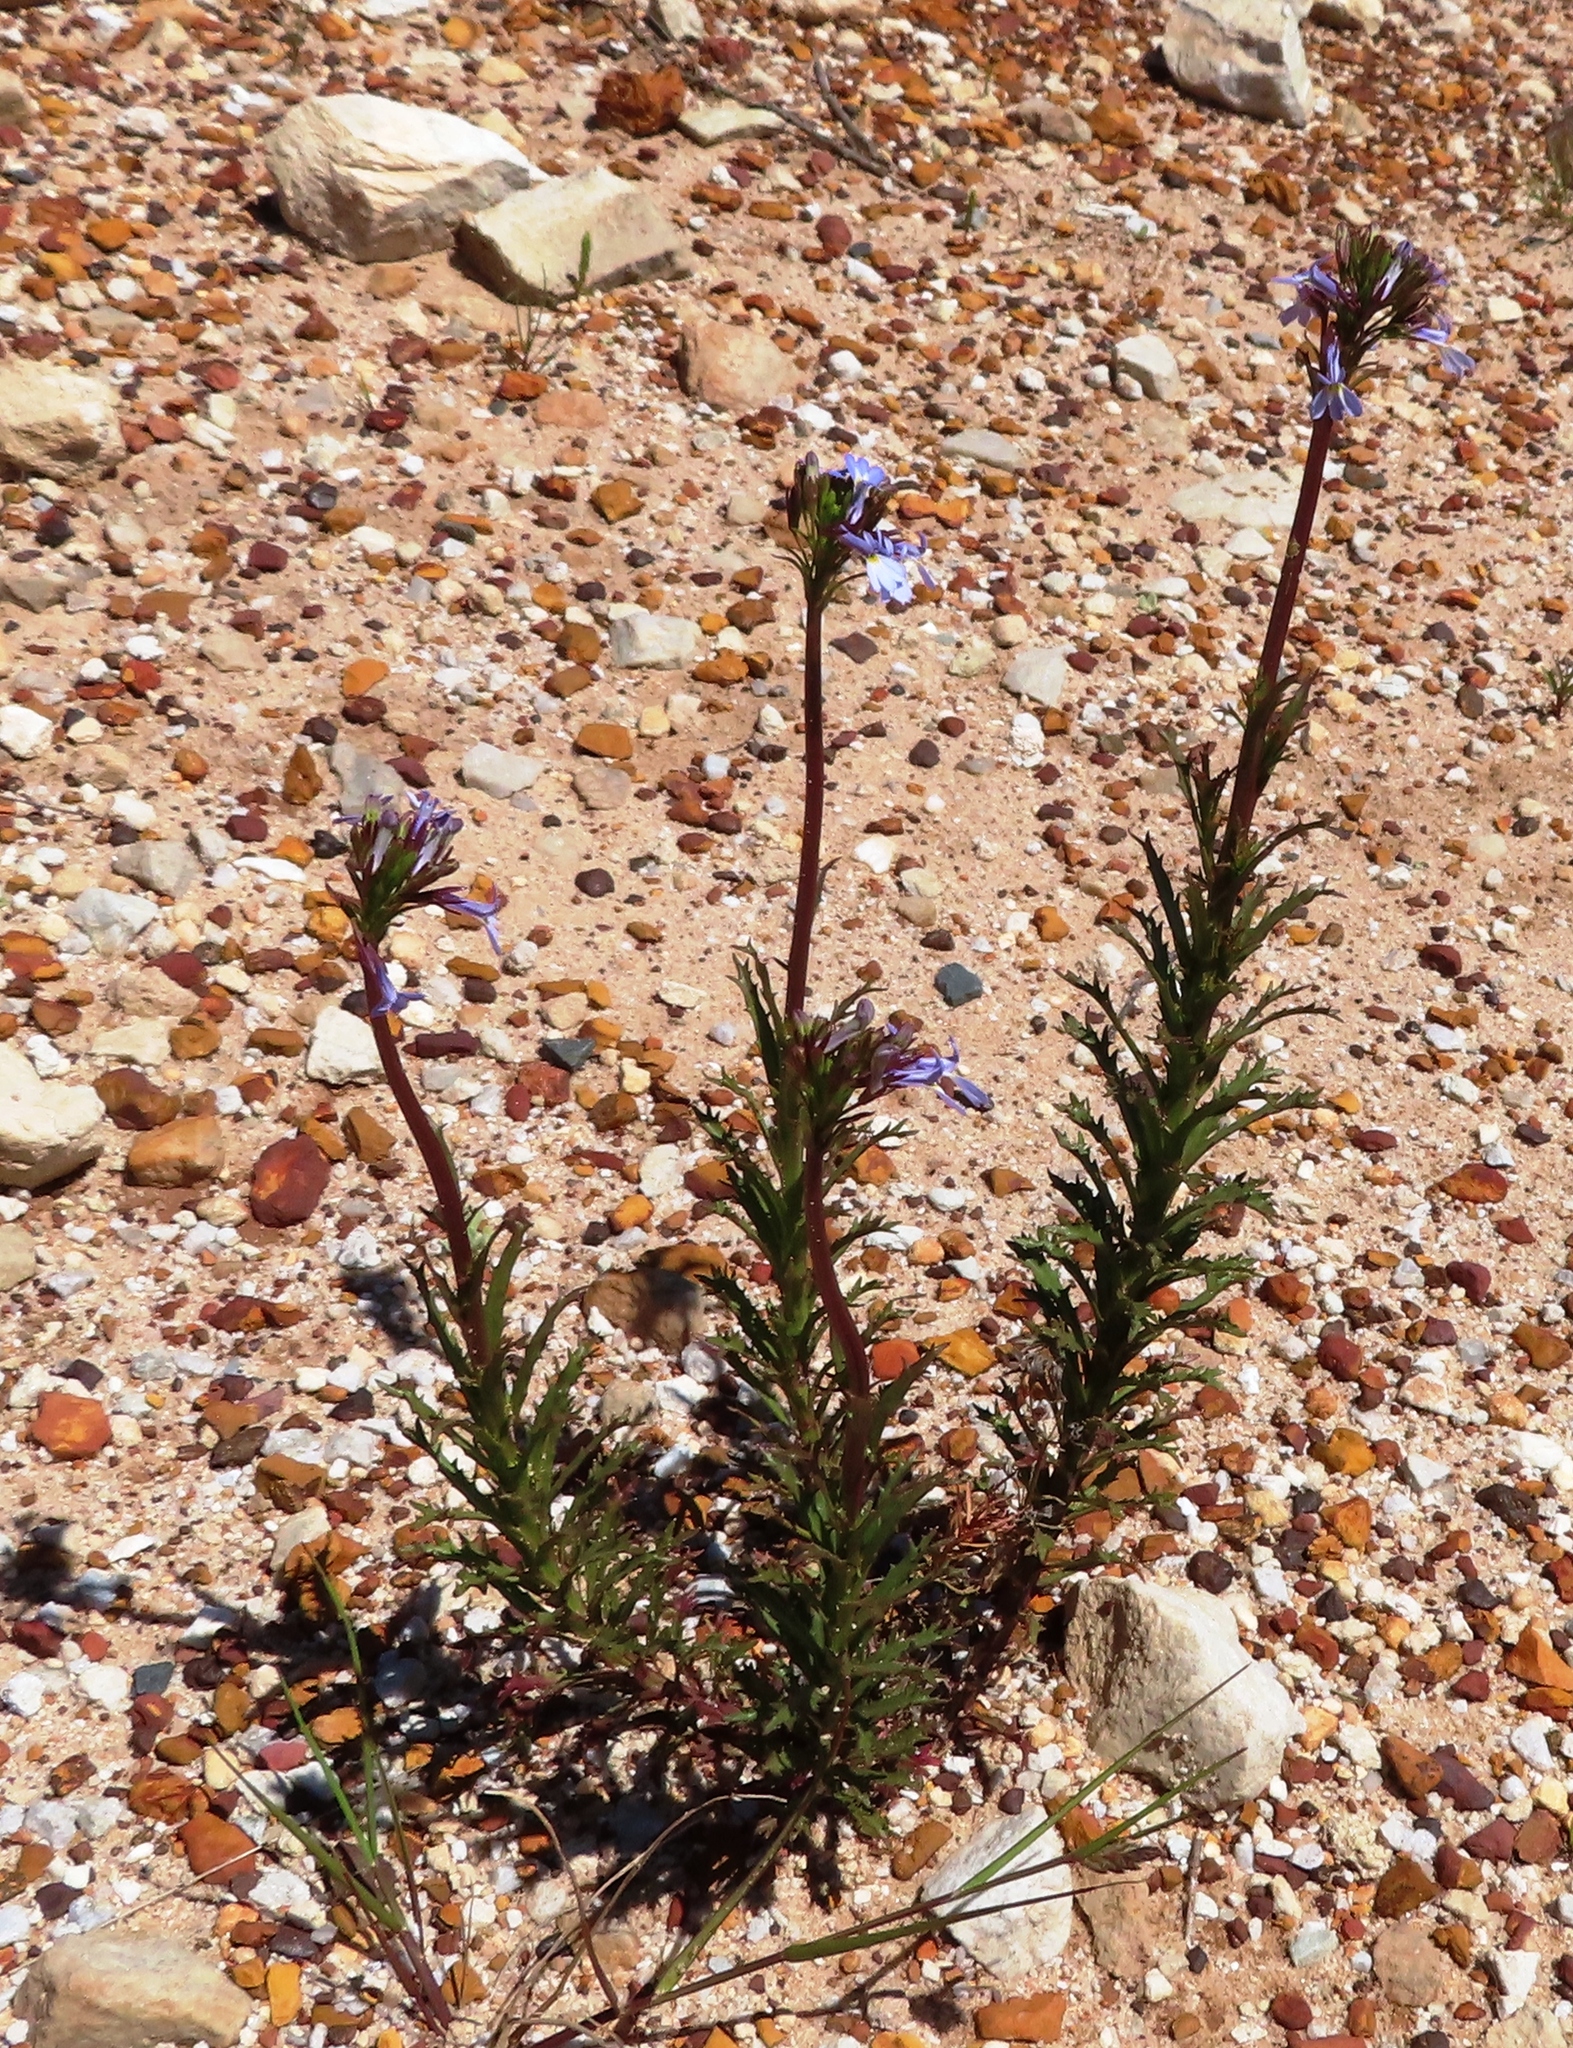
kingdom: Plantae
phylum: Tracheophyta
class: Magnoliopsida
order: Asterales
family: Campanulaceae
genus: Lobelia
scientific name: Lobelia comosa
